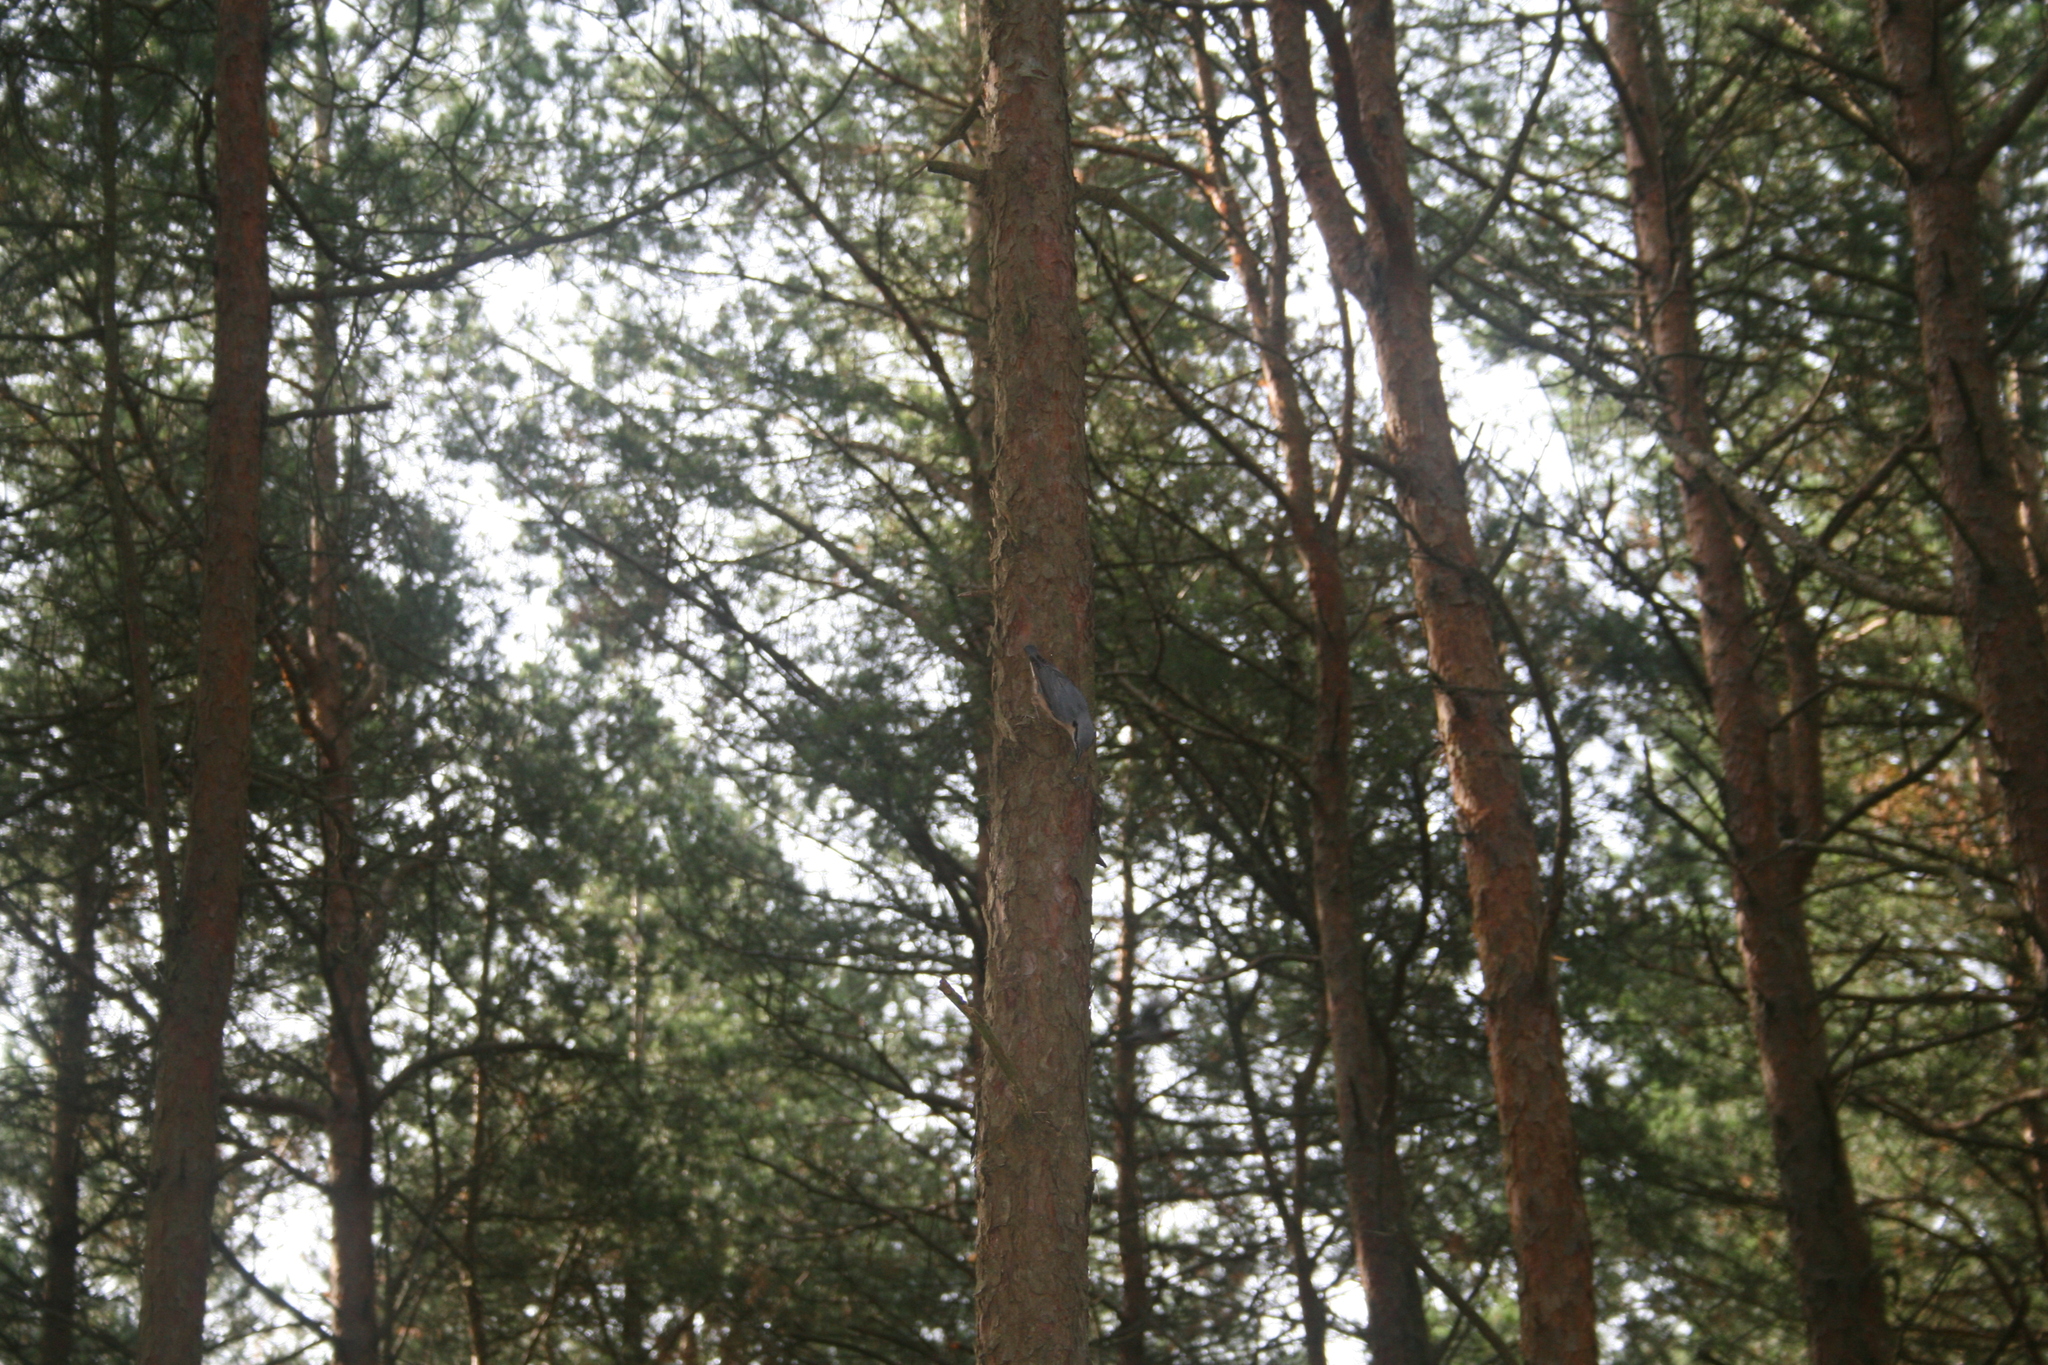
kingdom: Animalia
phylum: Chordata
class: Aves
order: Passeriformes
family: Sittidae
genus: Sitta
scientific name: Sitta europaea
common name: Eurasian nuthatch
